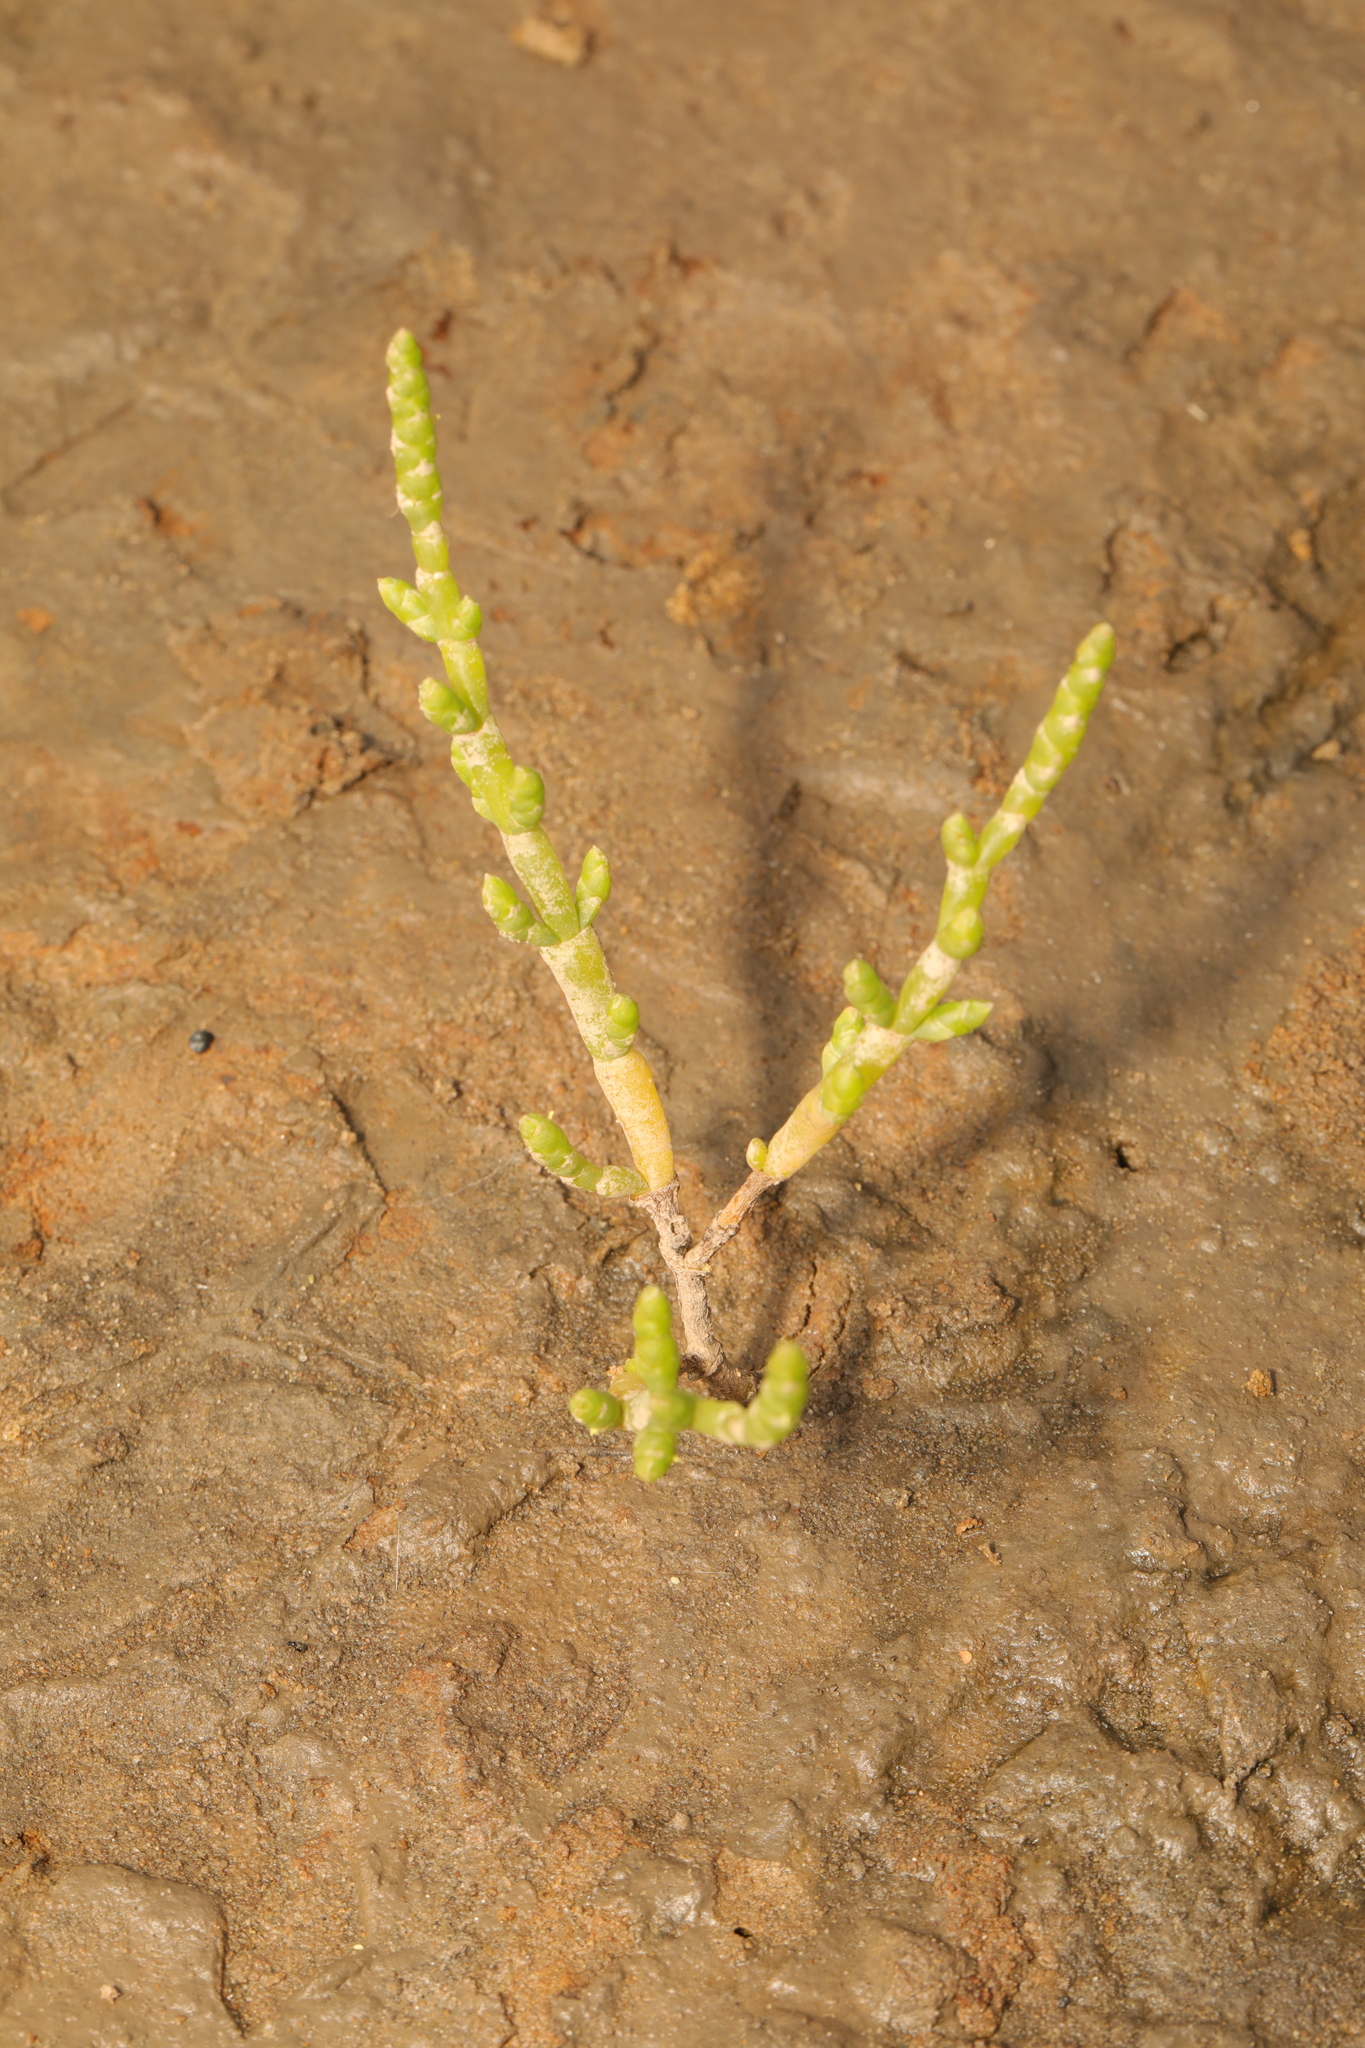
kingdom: Plantae
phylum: Tracheophyta
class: Magnoliopsida
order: Caryophyllales
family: Amaranthaceae
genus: Salicornia
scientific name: Salicornia europaea
